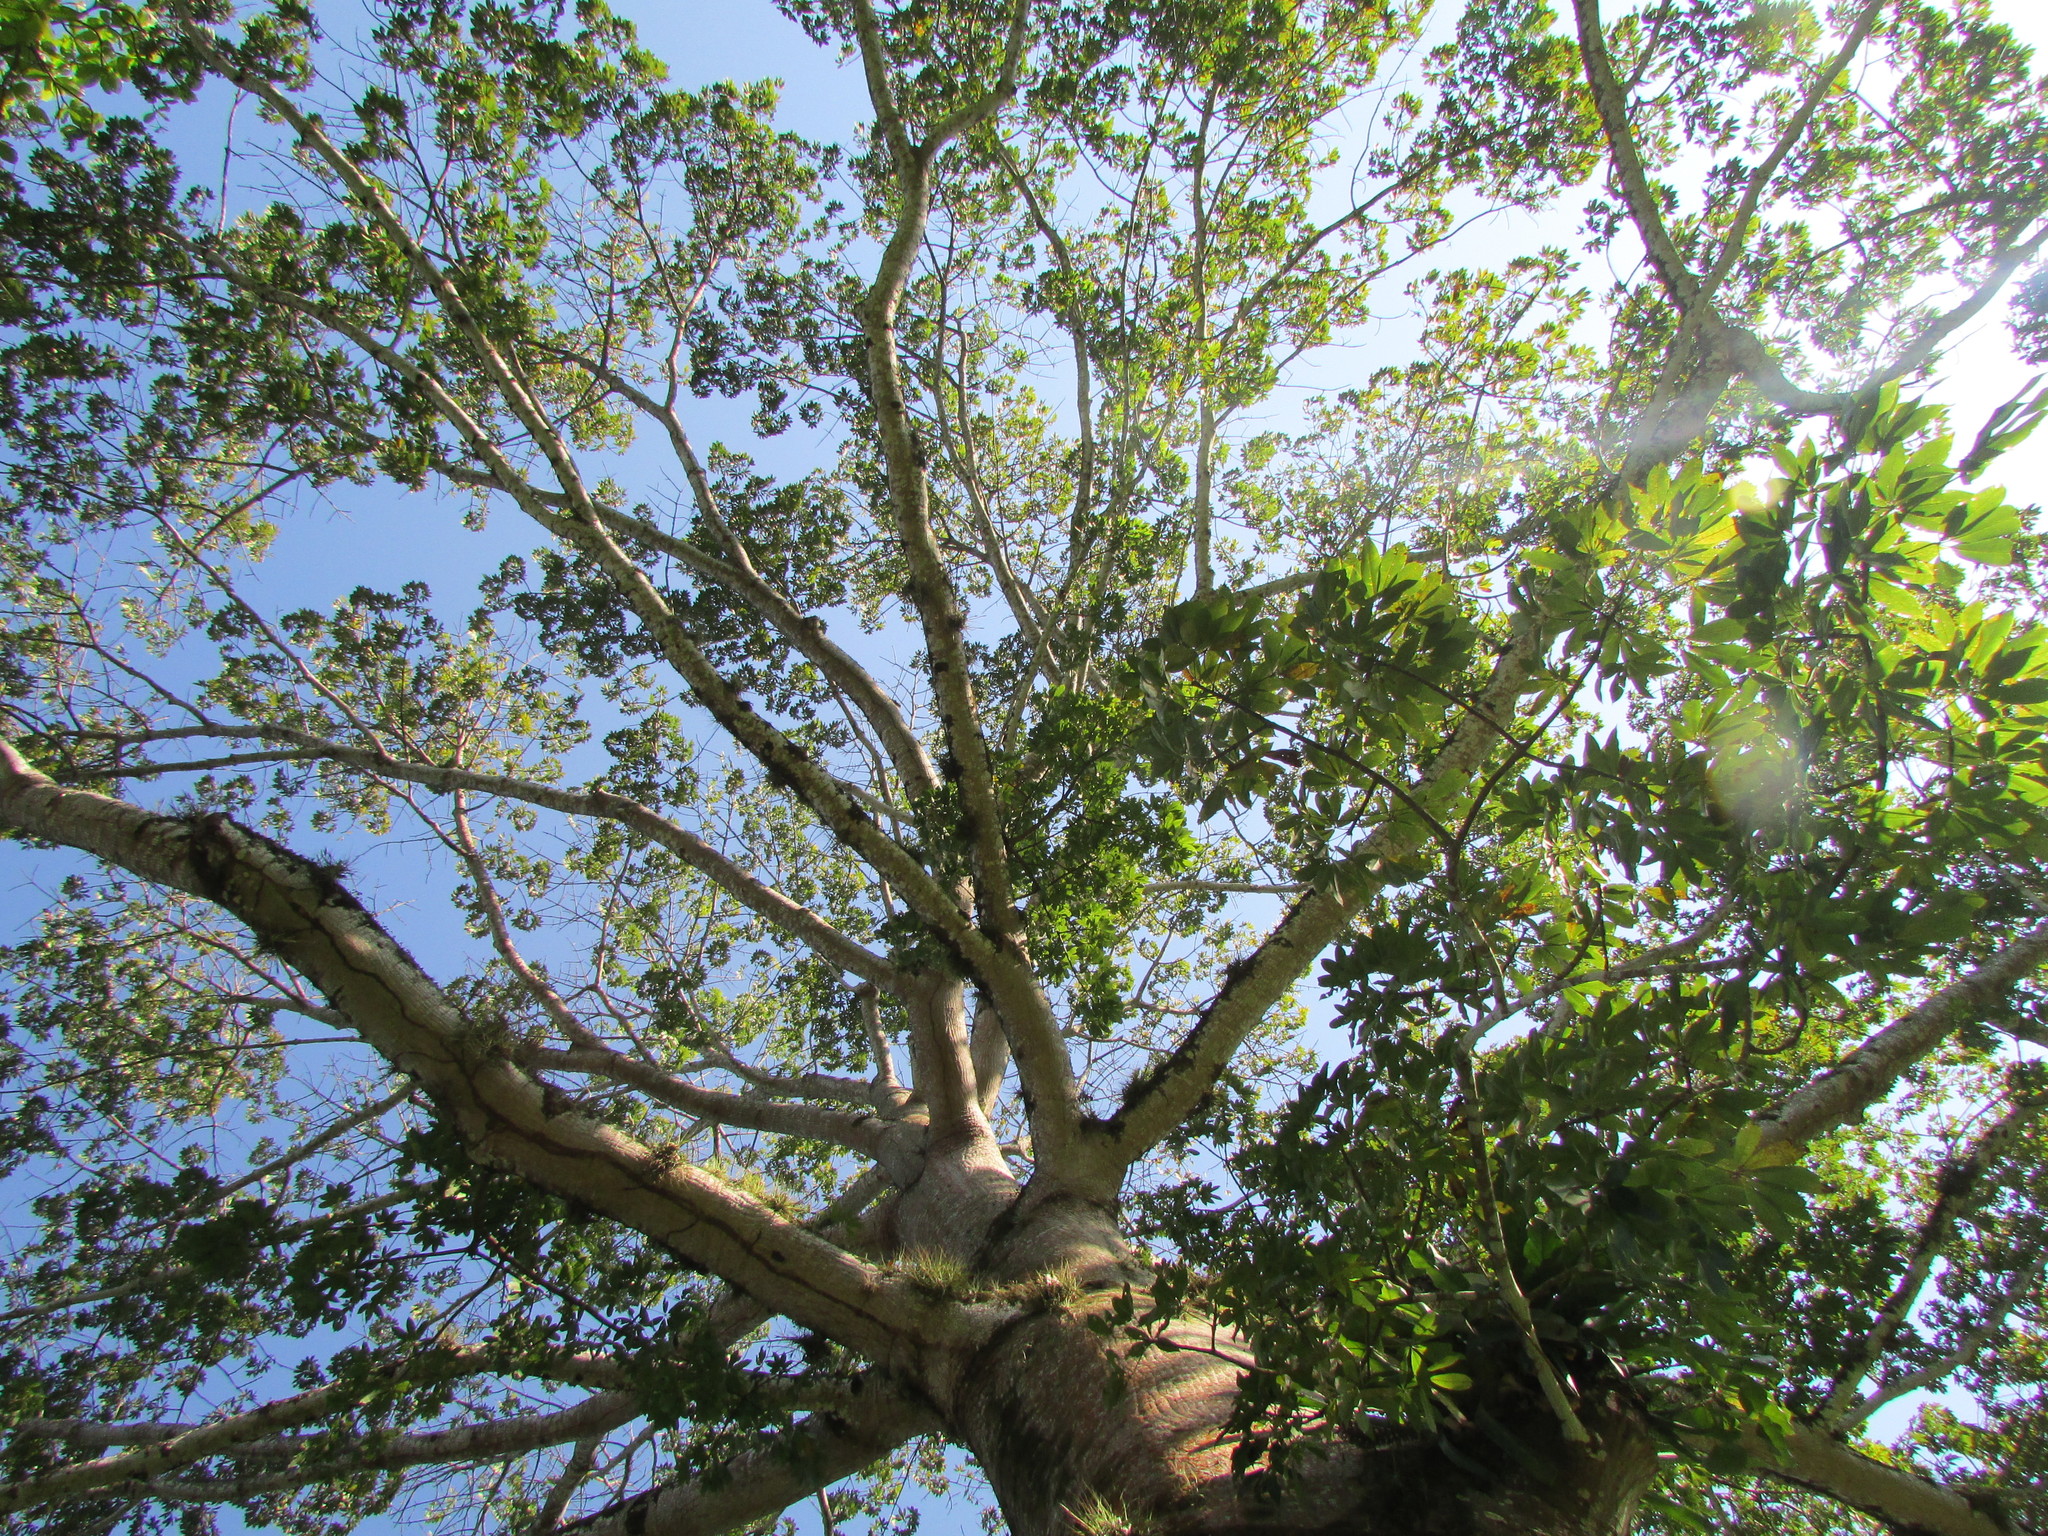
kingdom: Plantae
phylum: Tracheophyta
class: Magnoliopsida
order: Malvales
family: Malvaceae
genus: Ceiba
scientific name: Ceiba pentandra
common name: Kapok
